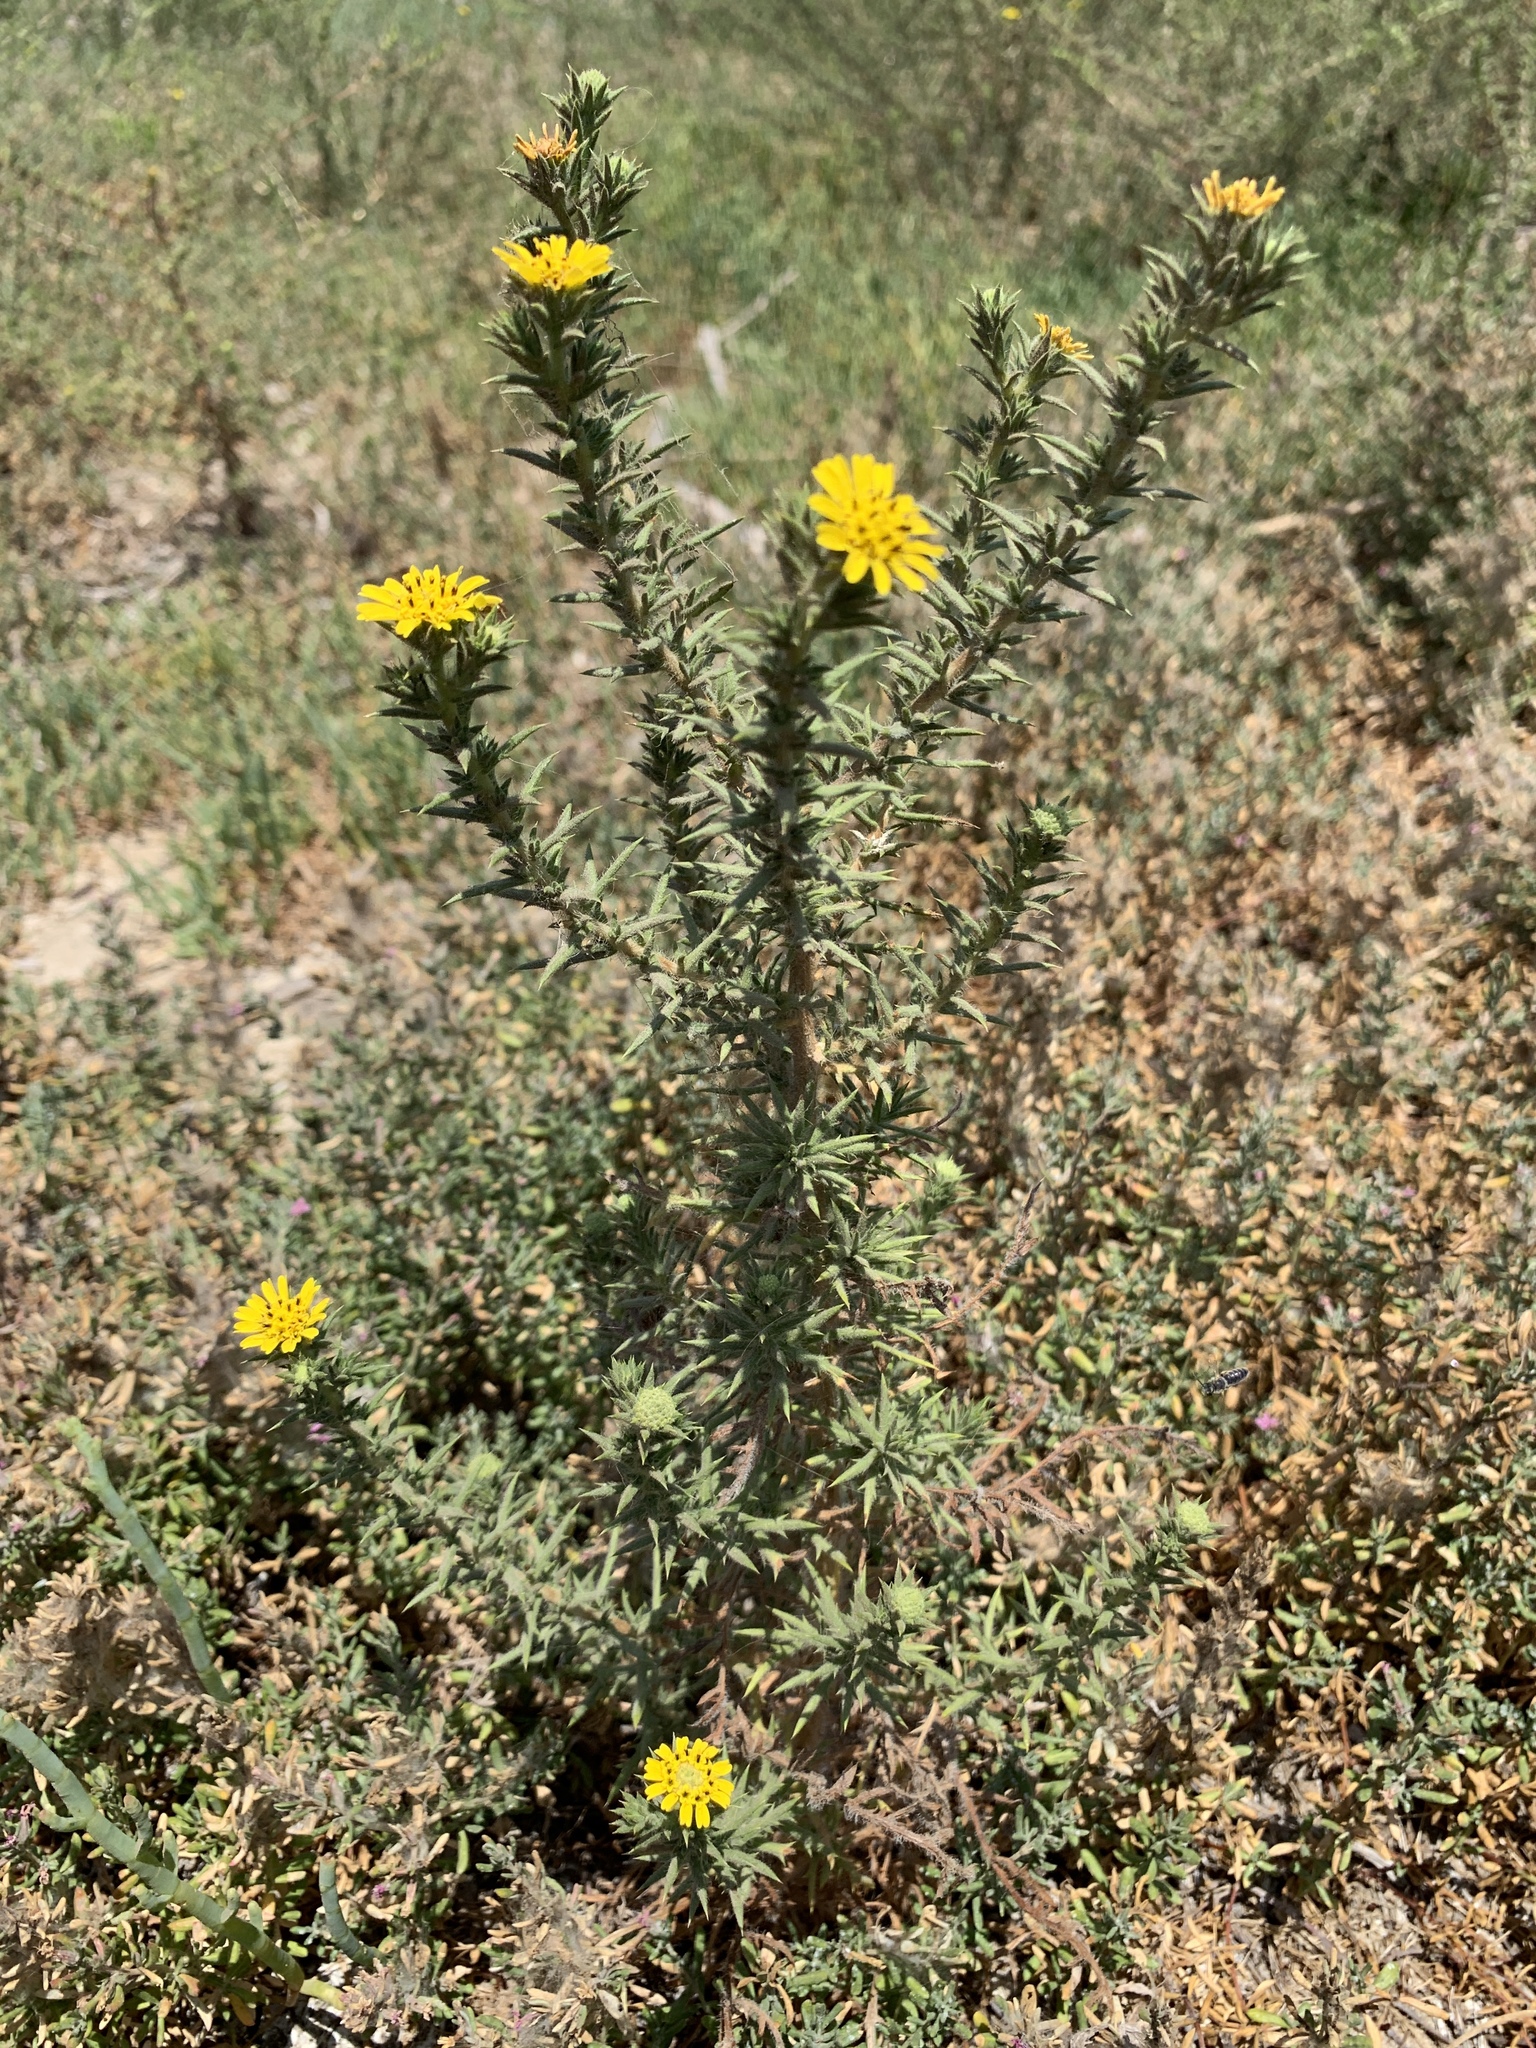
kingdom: Plantae
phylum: Tracheophyta
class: Magnoliopsida
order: Asterales
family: Asteraceae
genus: Centromadia
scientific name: Centromadia parryi
